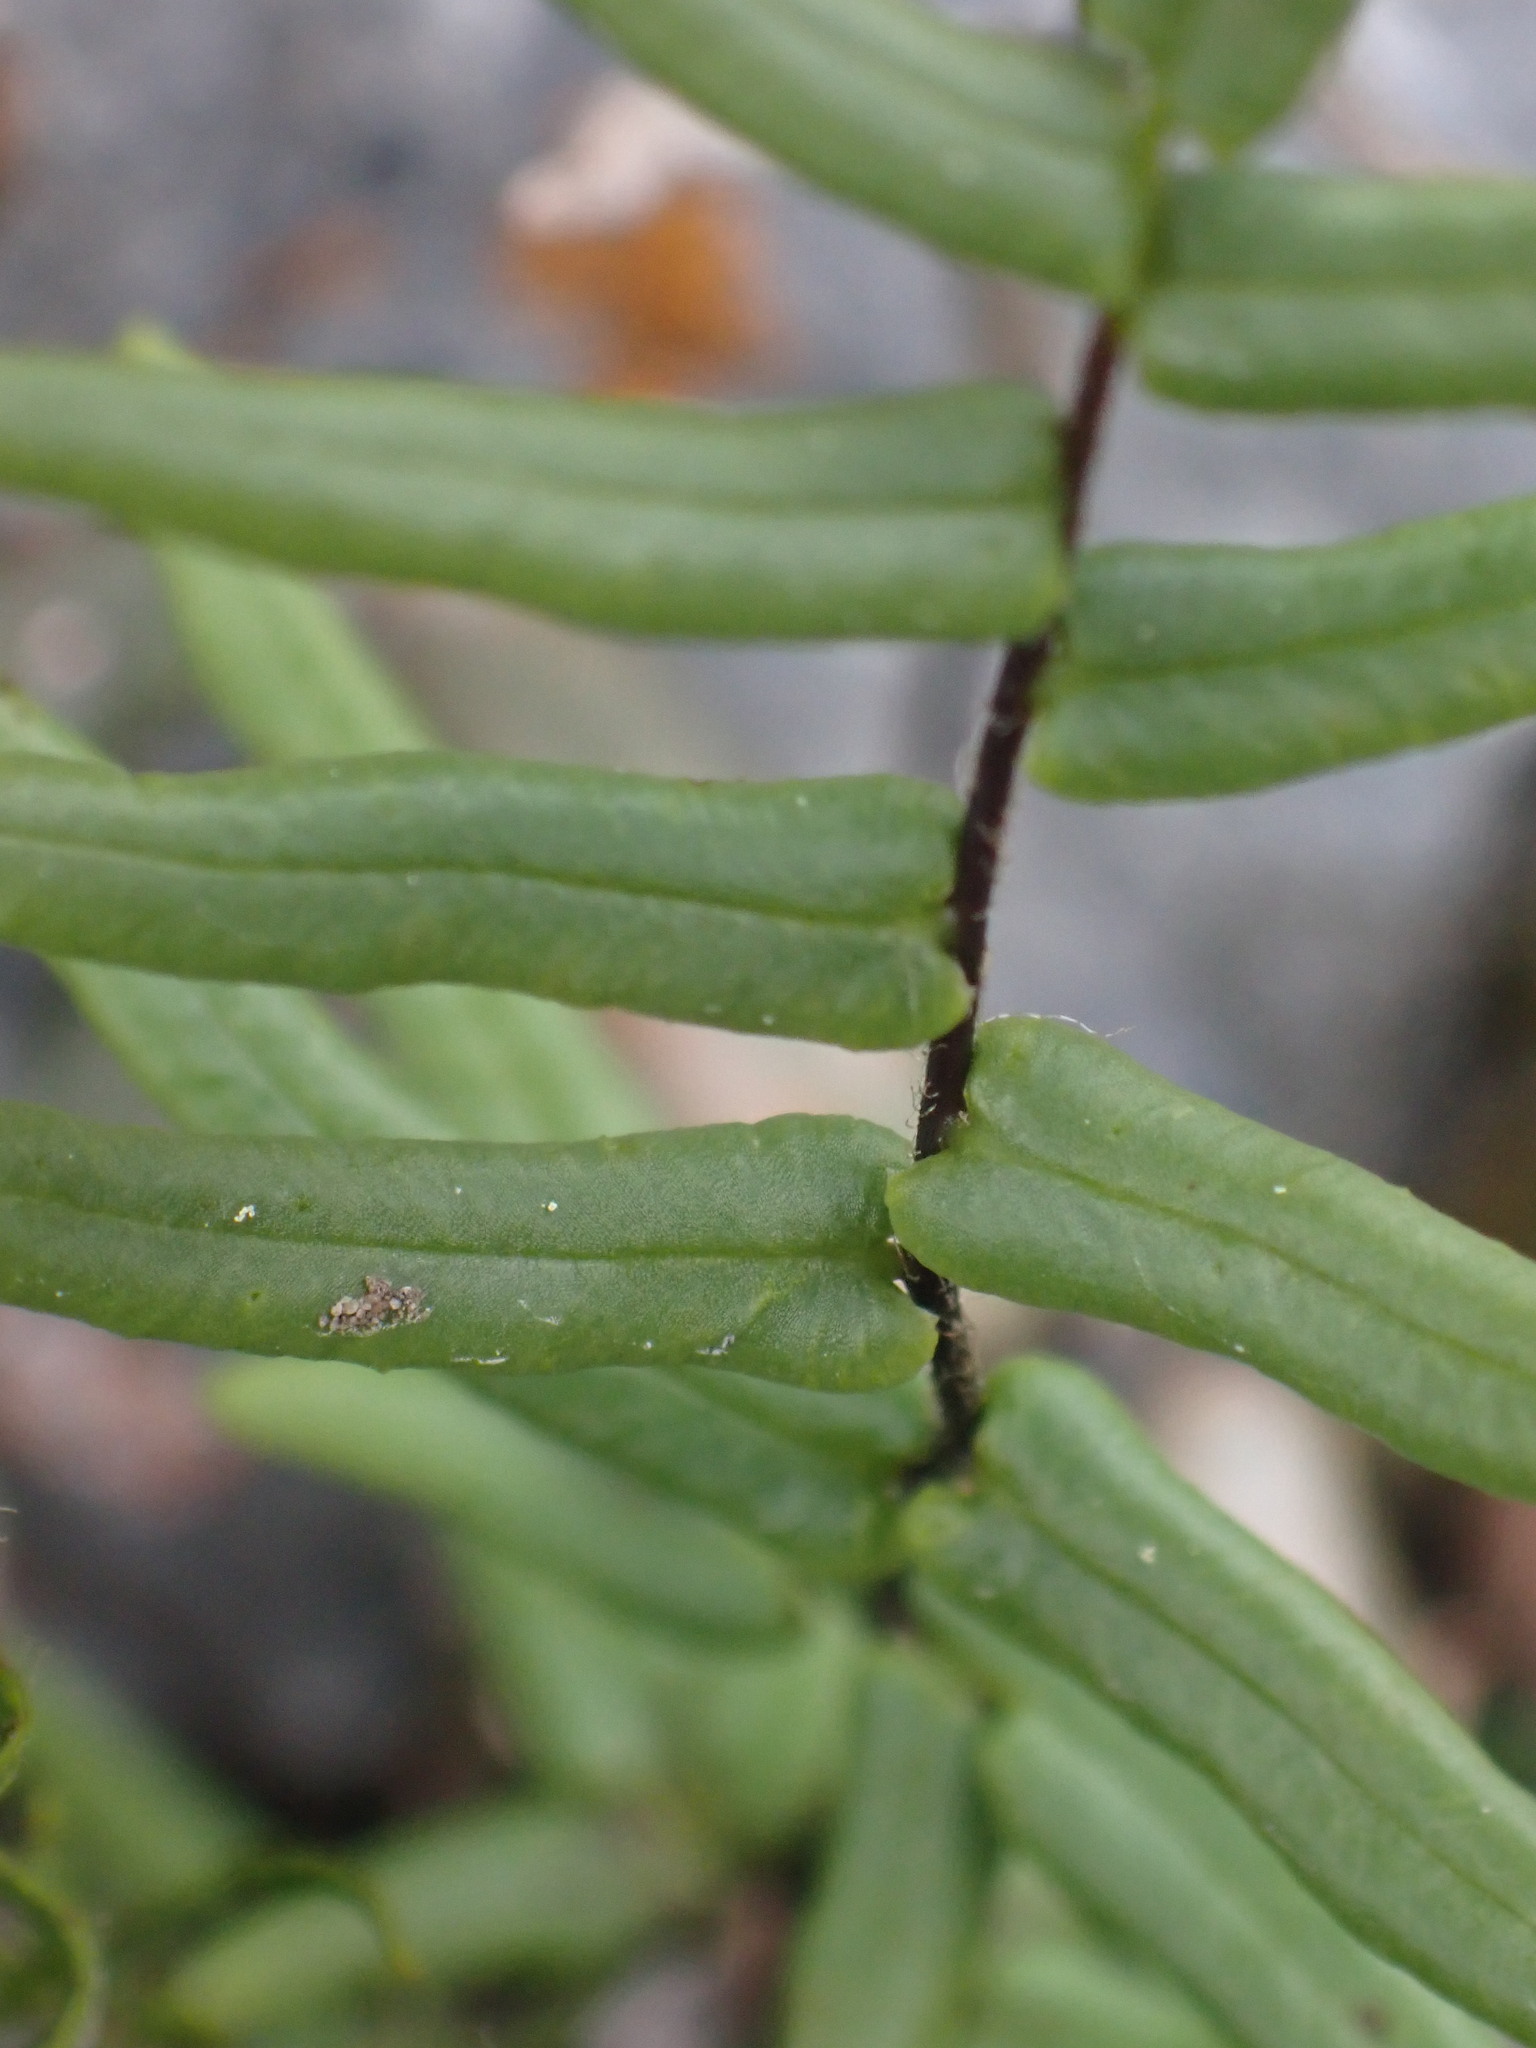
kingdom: Plantae
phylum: Tracheophyta
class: Polypodiopsida
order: Polypodiales
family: Pteridaceae
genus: Pellaea
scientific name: Pellaea gastonyi
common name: Gastony's cliffbrake
